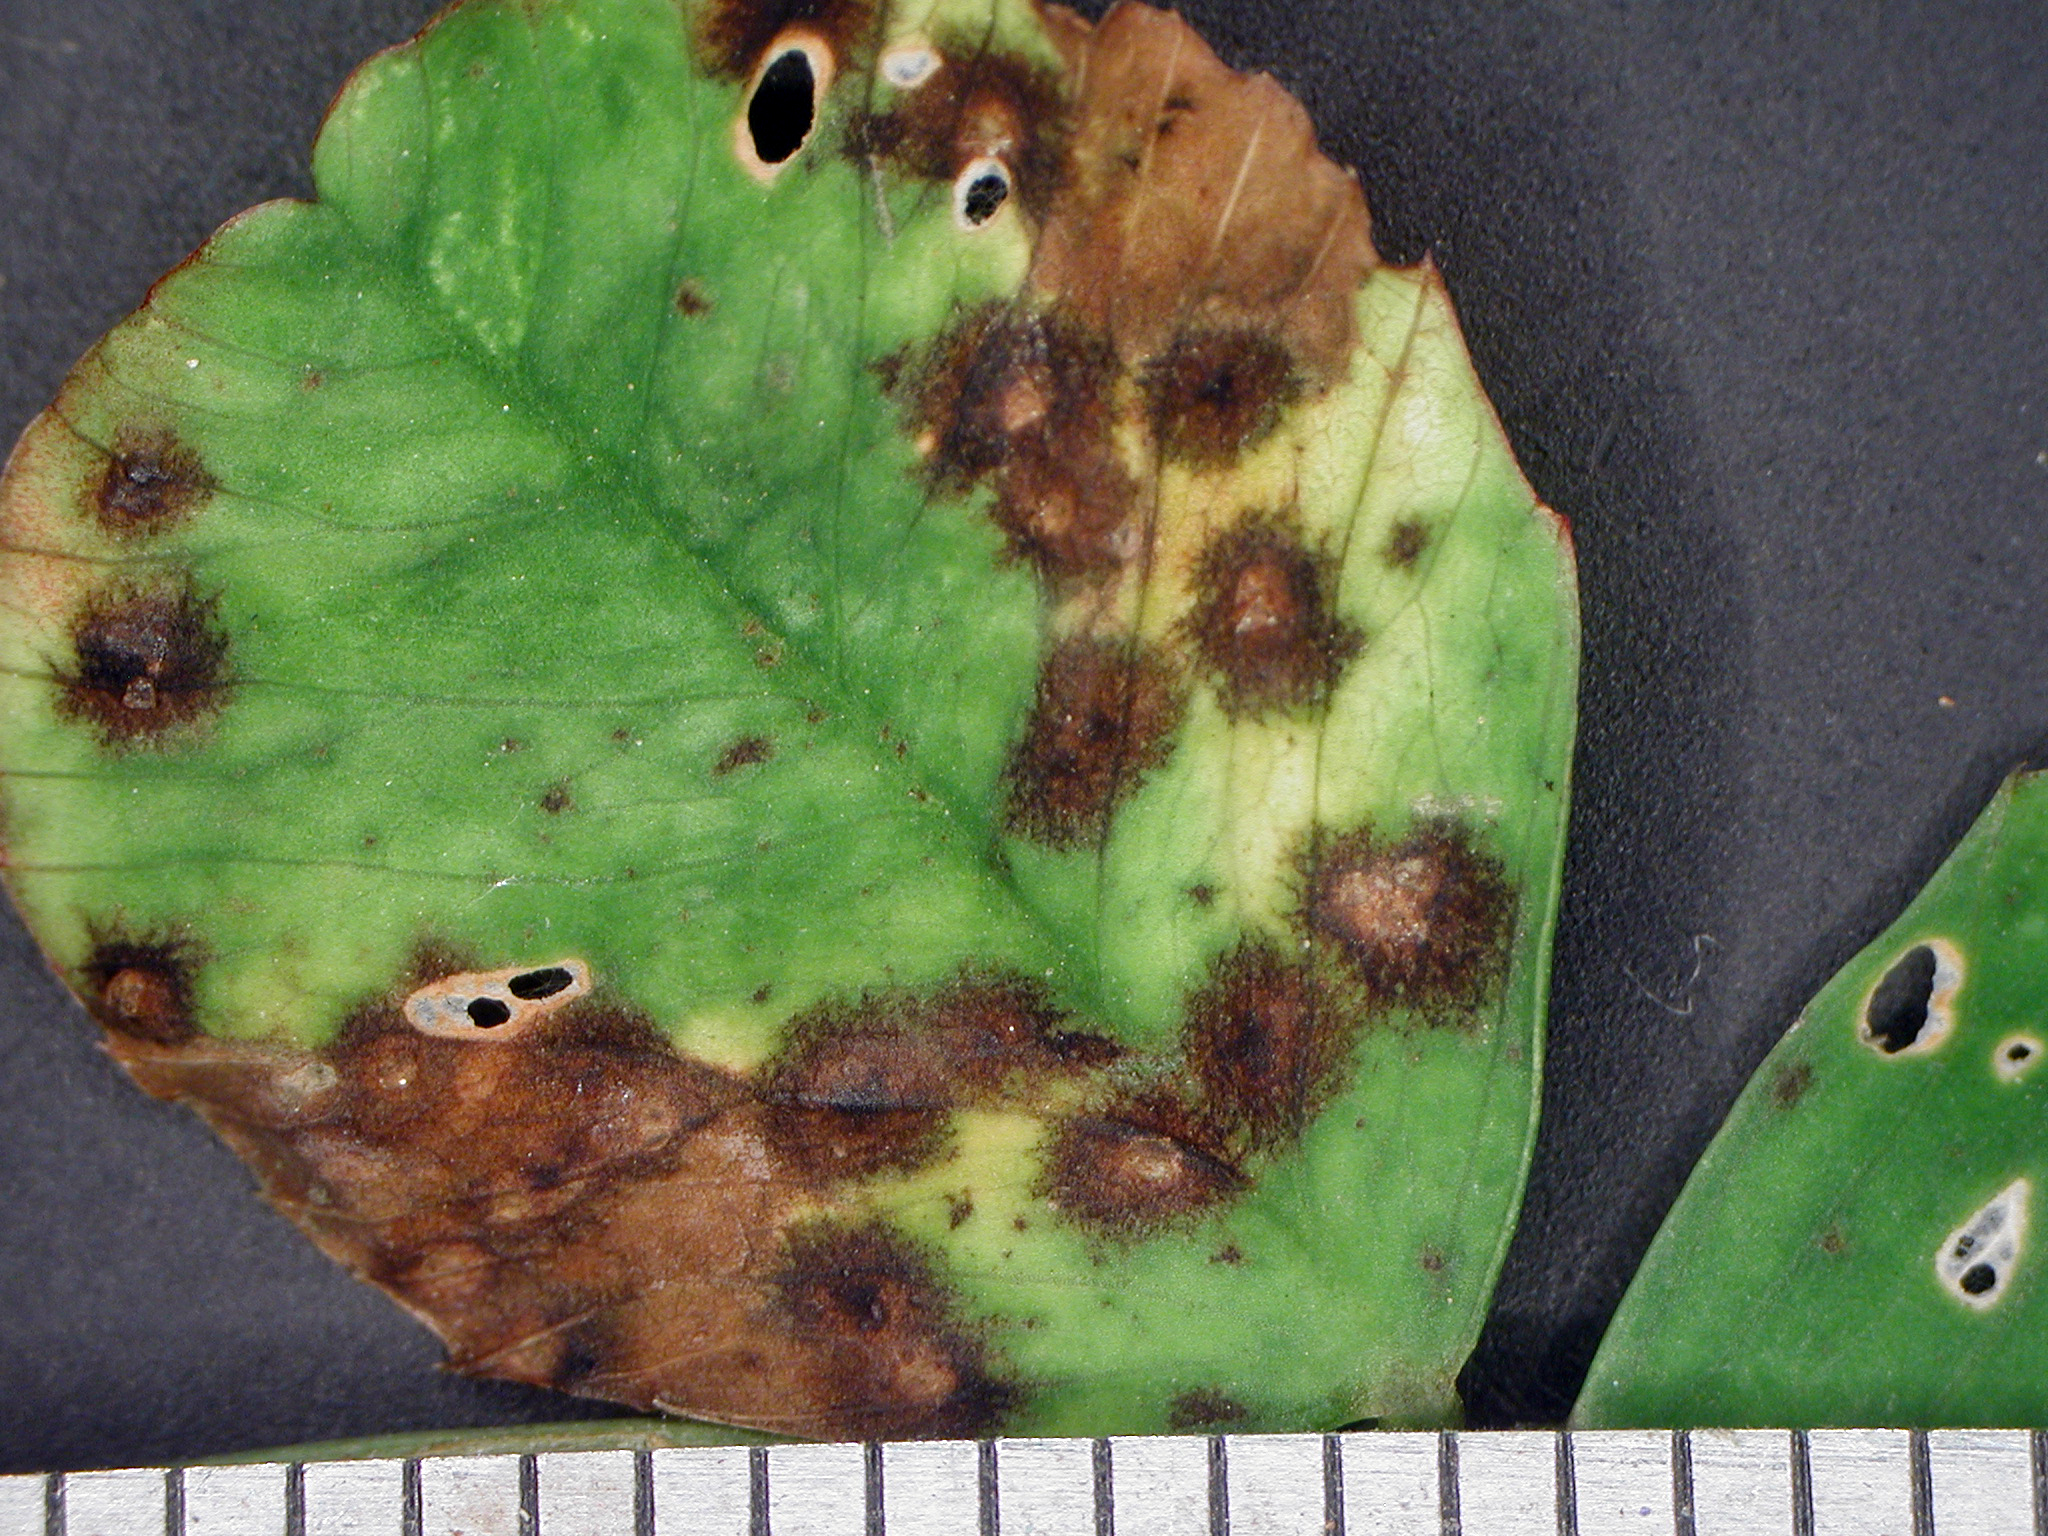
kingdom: Fungi
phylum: Ascomycota
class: Leotiomycetes
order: Helotiales
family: Drepanopezizaceae
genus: Pseudopeziza
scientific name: Pseudopeziza trifolii
